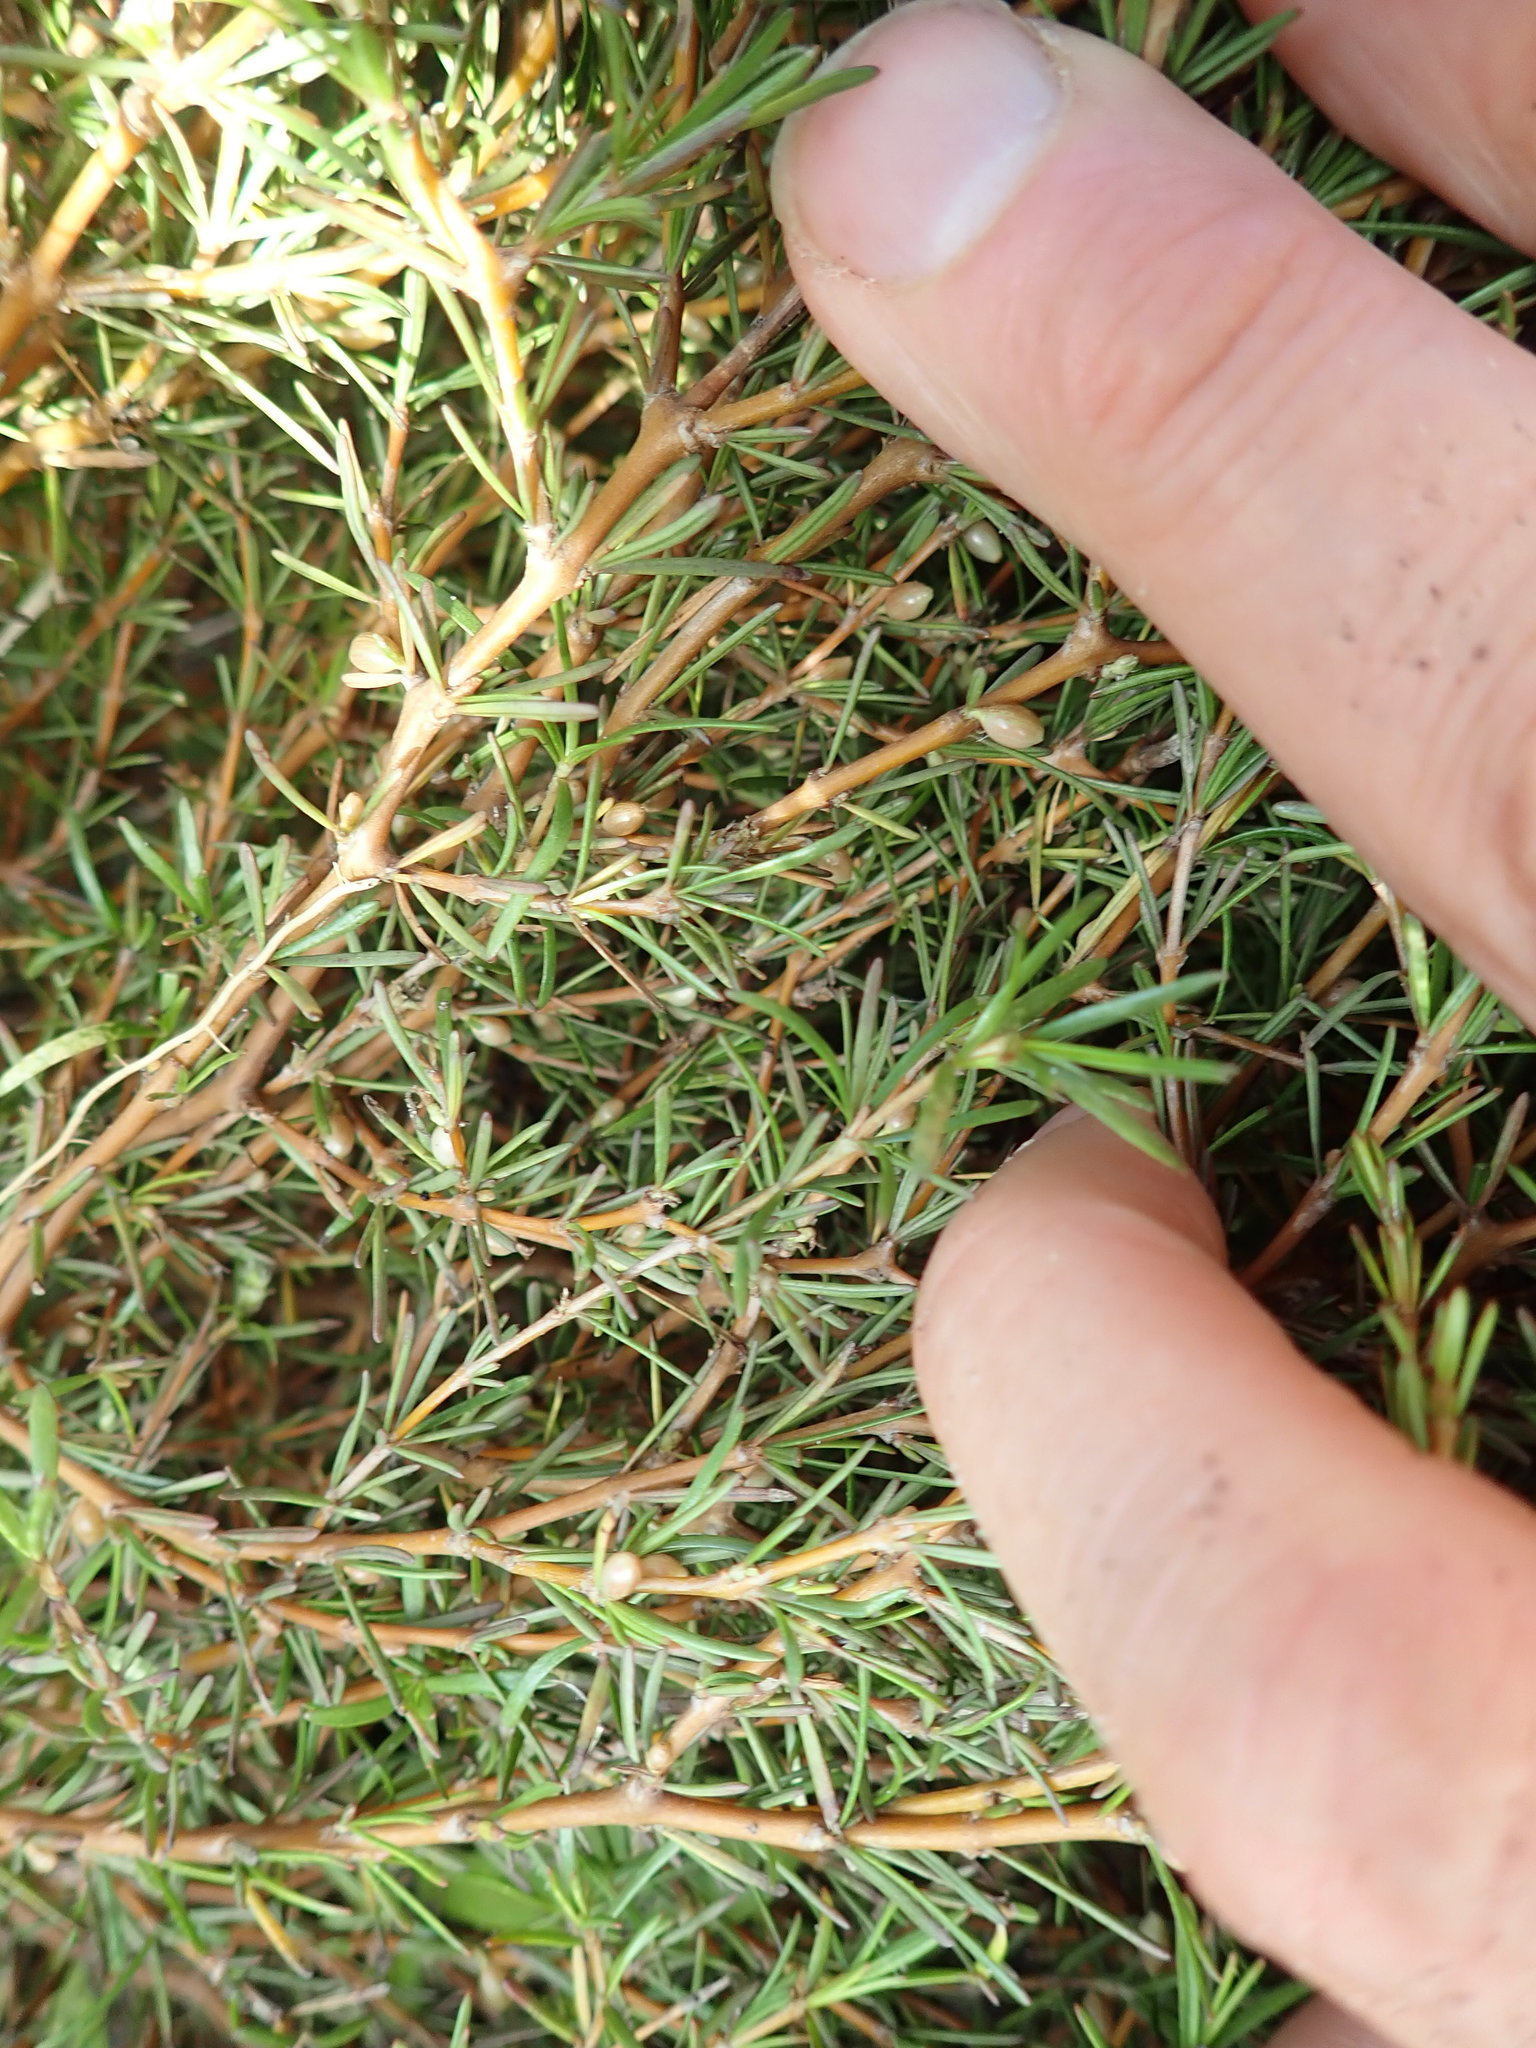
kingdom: Plantae
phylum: Tracheophyta
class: Magnoliopsida
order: Gentianales
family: Rubiaceae
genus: Coprosma
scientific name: Coprosma acerosa
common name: Sand coprosma
